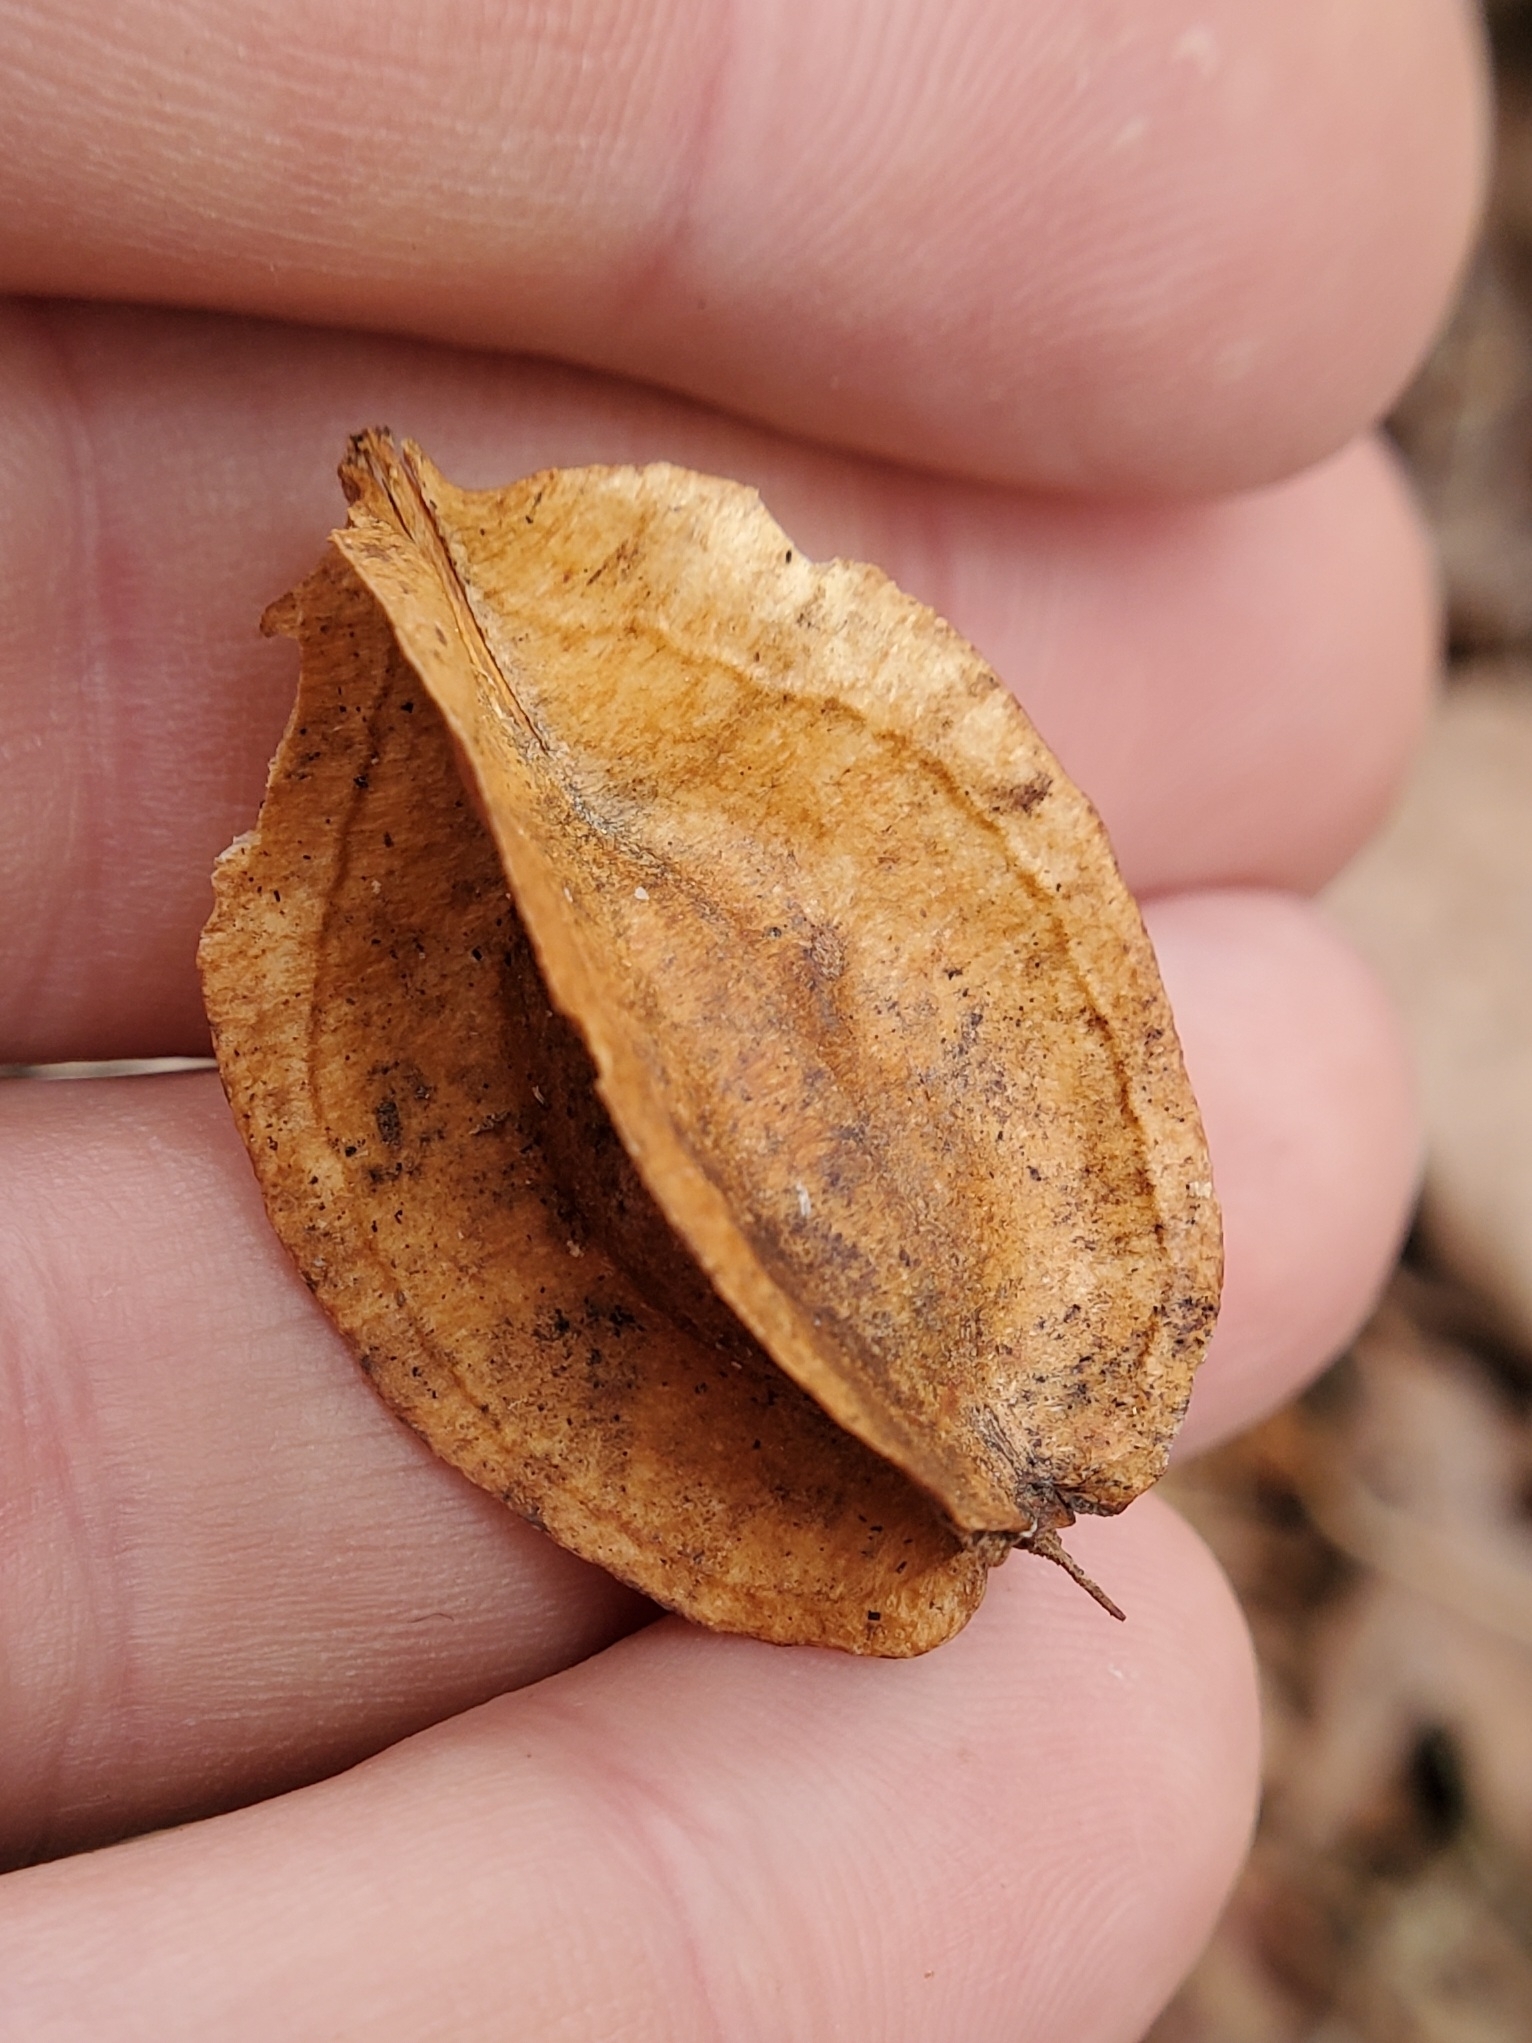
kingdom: Plantae
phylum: Tracheophyta
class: Magnoliopsida
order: Ericales
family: Styracaceae
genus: Halesia
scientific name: Halesia tetraptera
